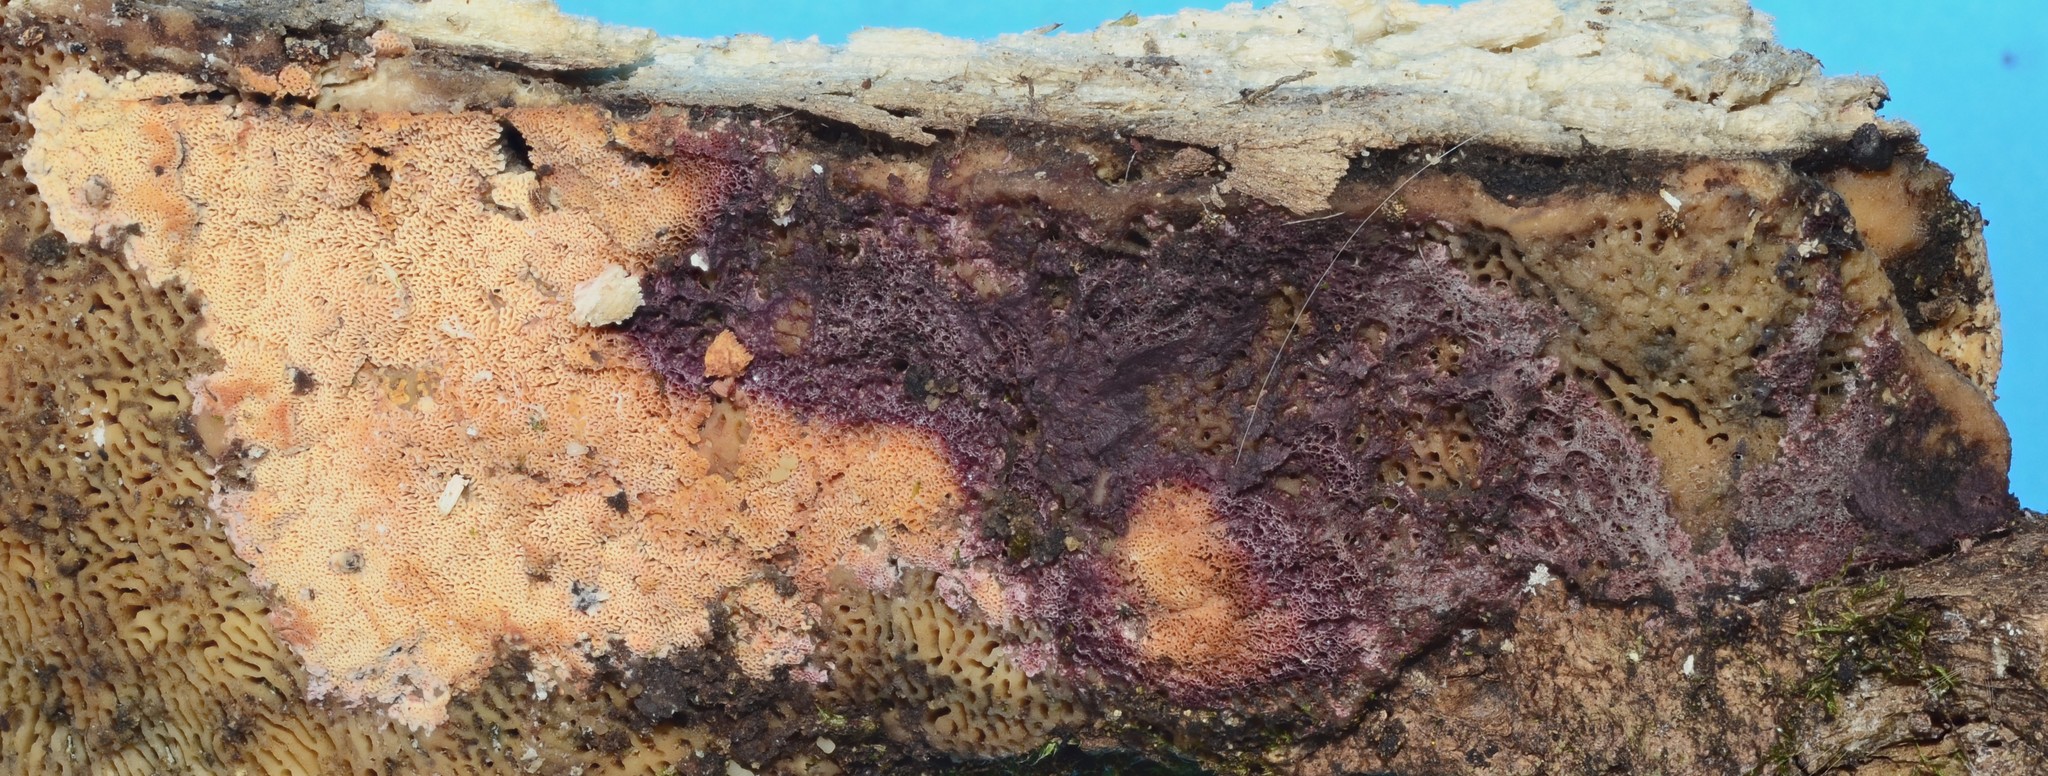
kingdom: Fungi
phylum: Basidiomycota
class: Agaricomycetes
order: Polyporales
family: Irpicaceae
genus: Ceriporia
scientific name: Ceriporia purpurea
